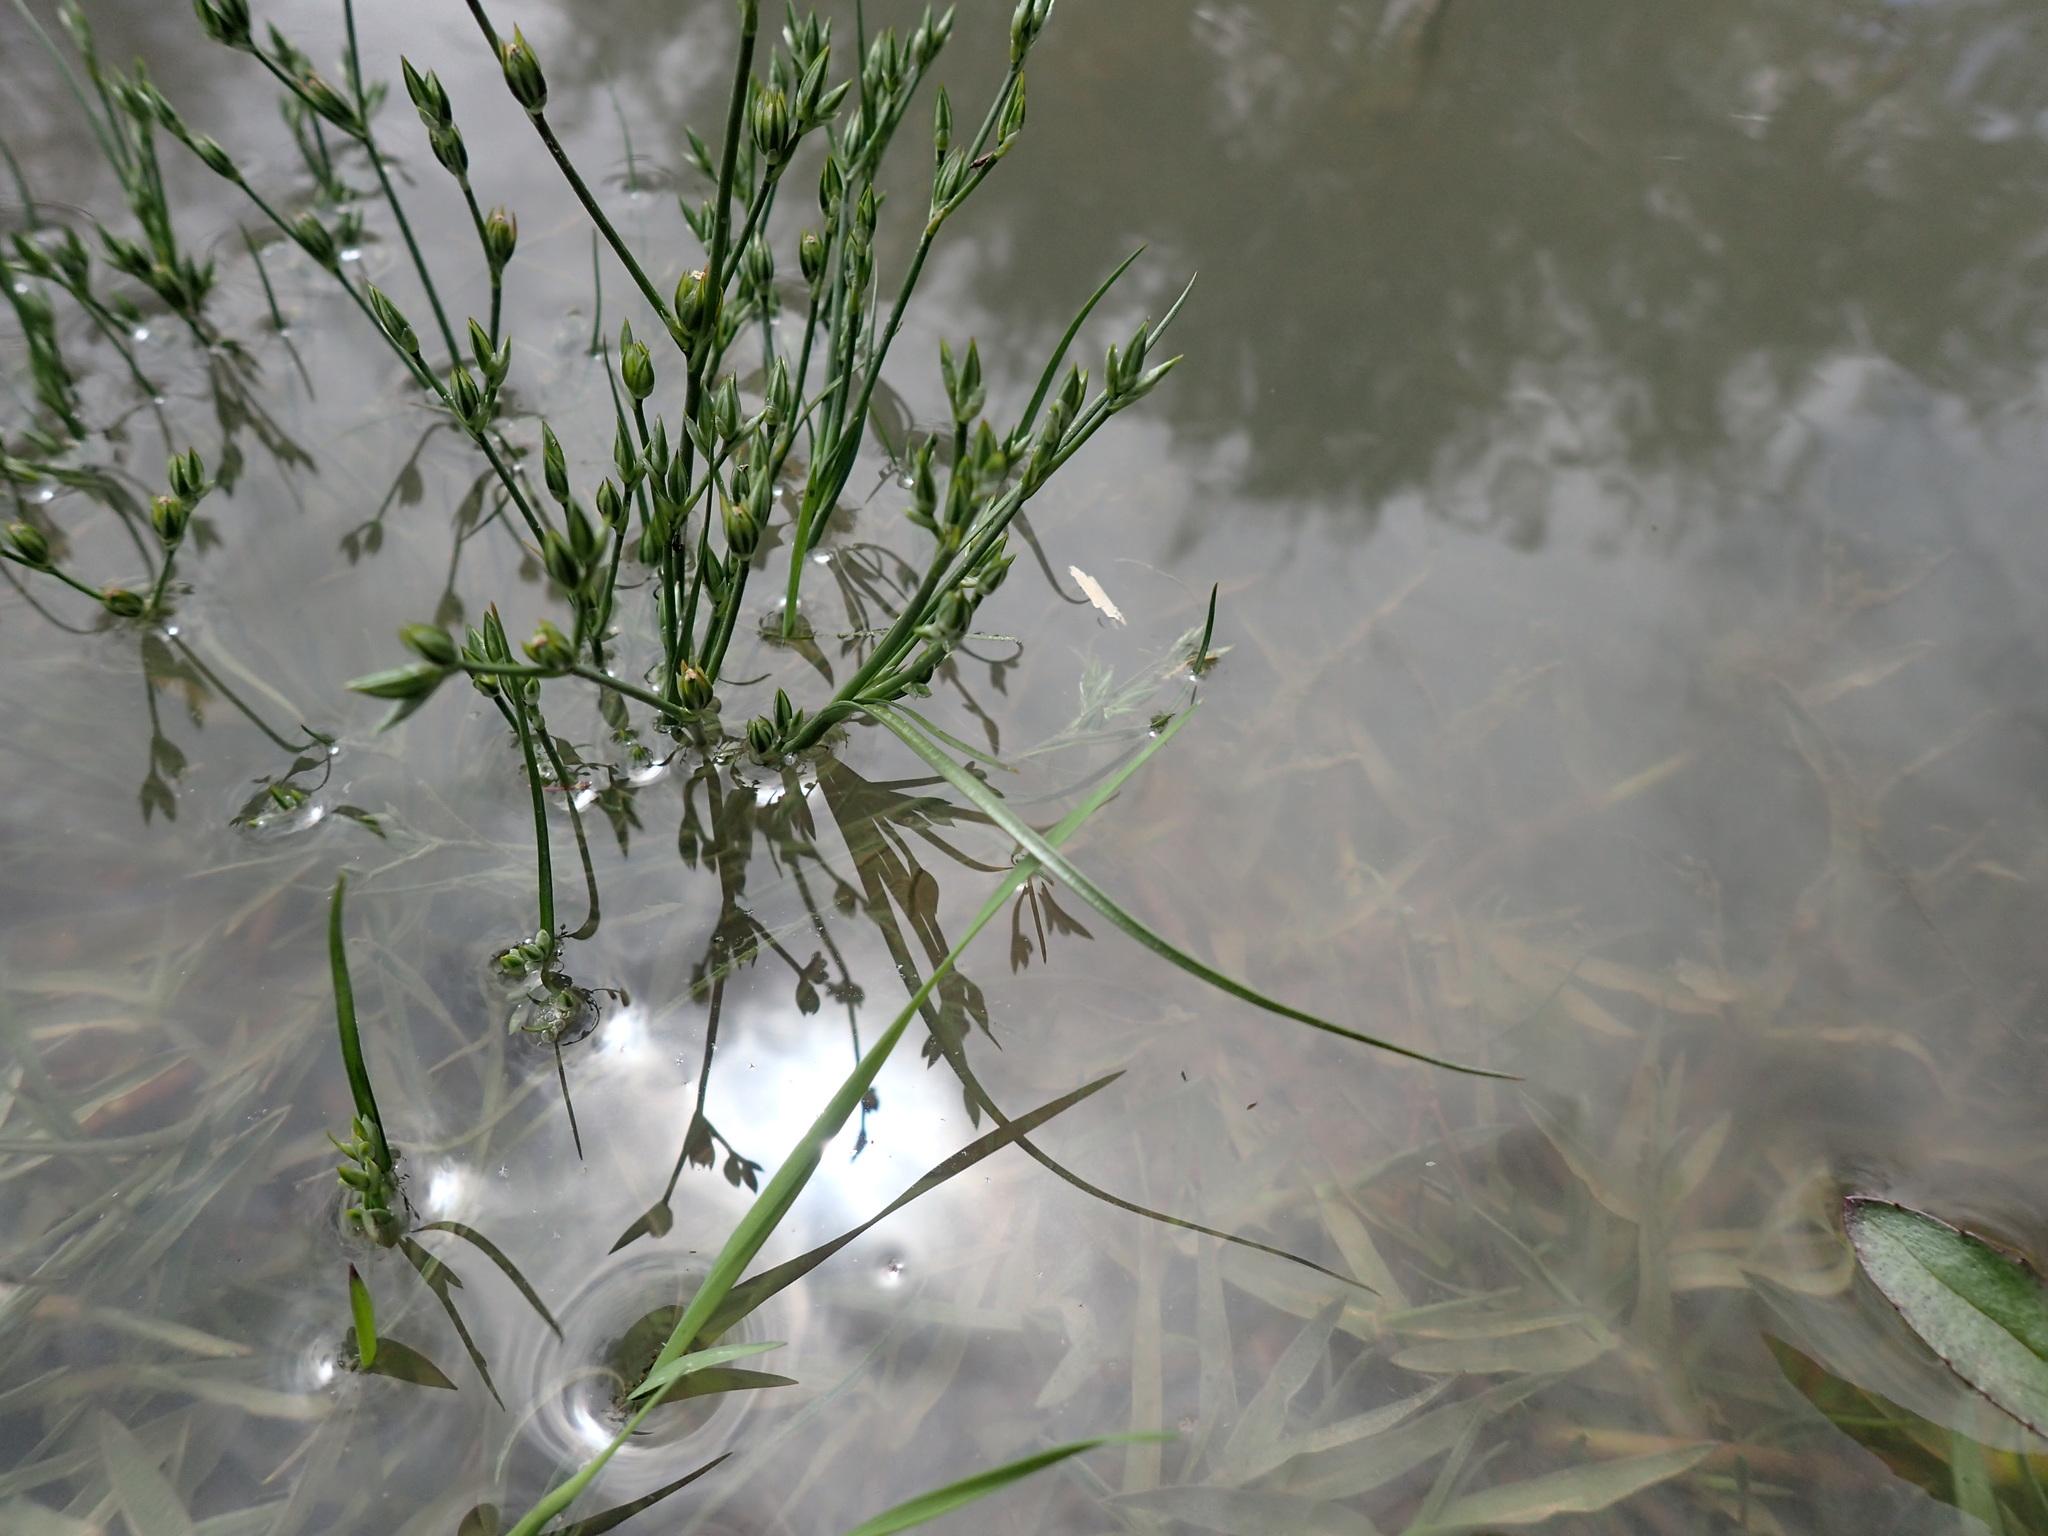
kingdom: Plantae
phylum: Tracheophyta
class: Liliopsida
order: Poales
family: Juncaceae
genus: Juncus
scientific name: Juncus bufonius
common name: Toad rush
